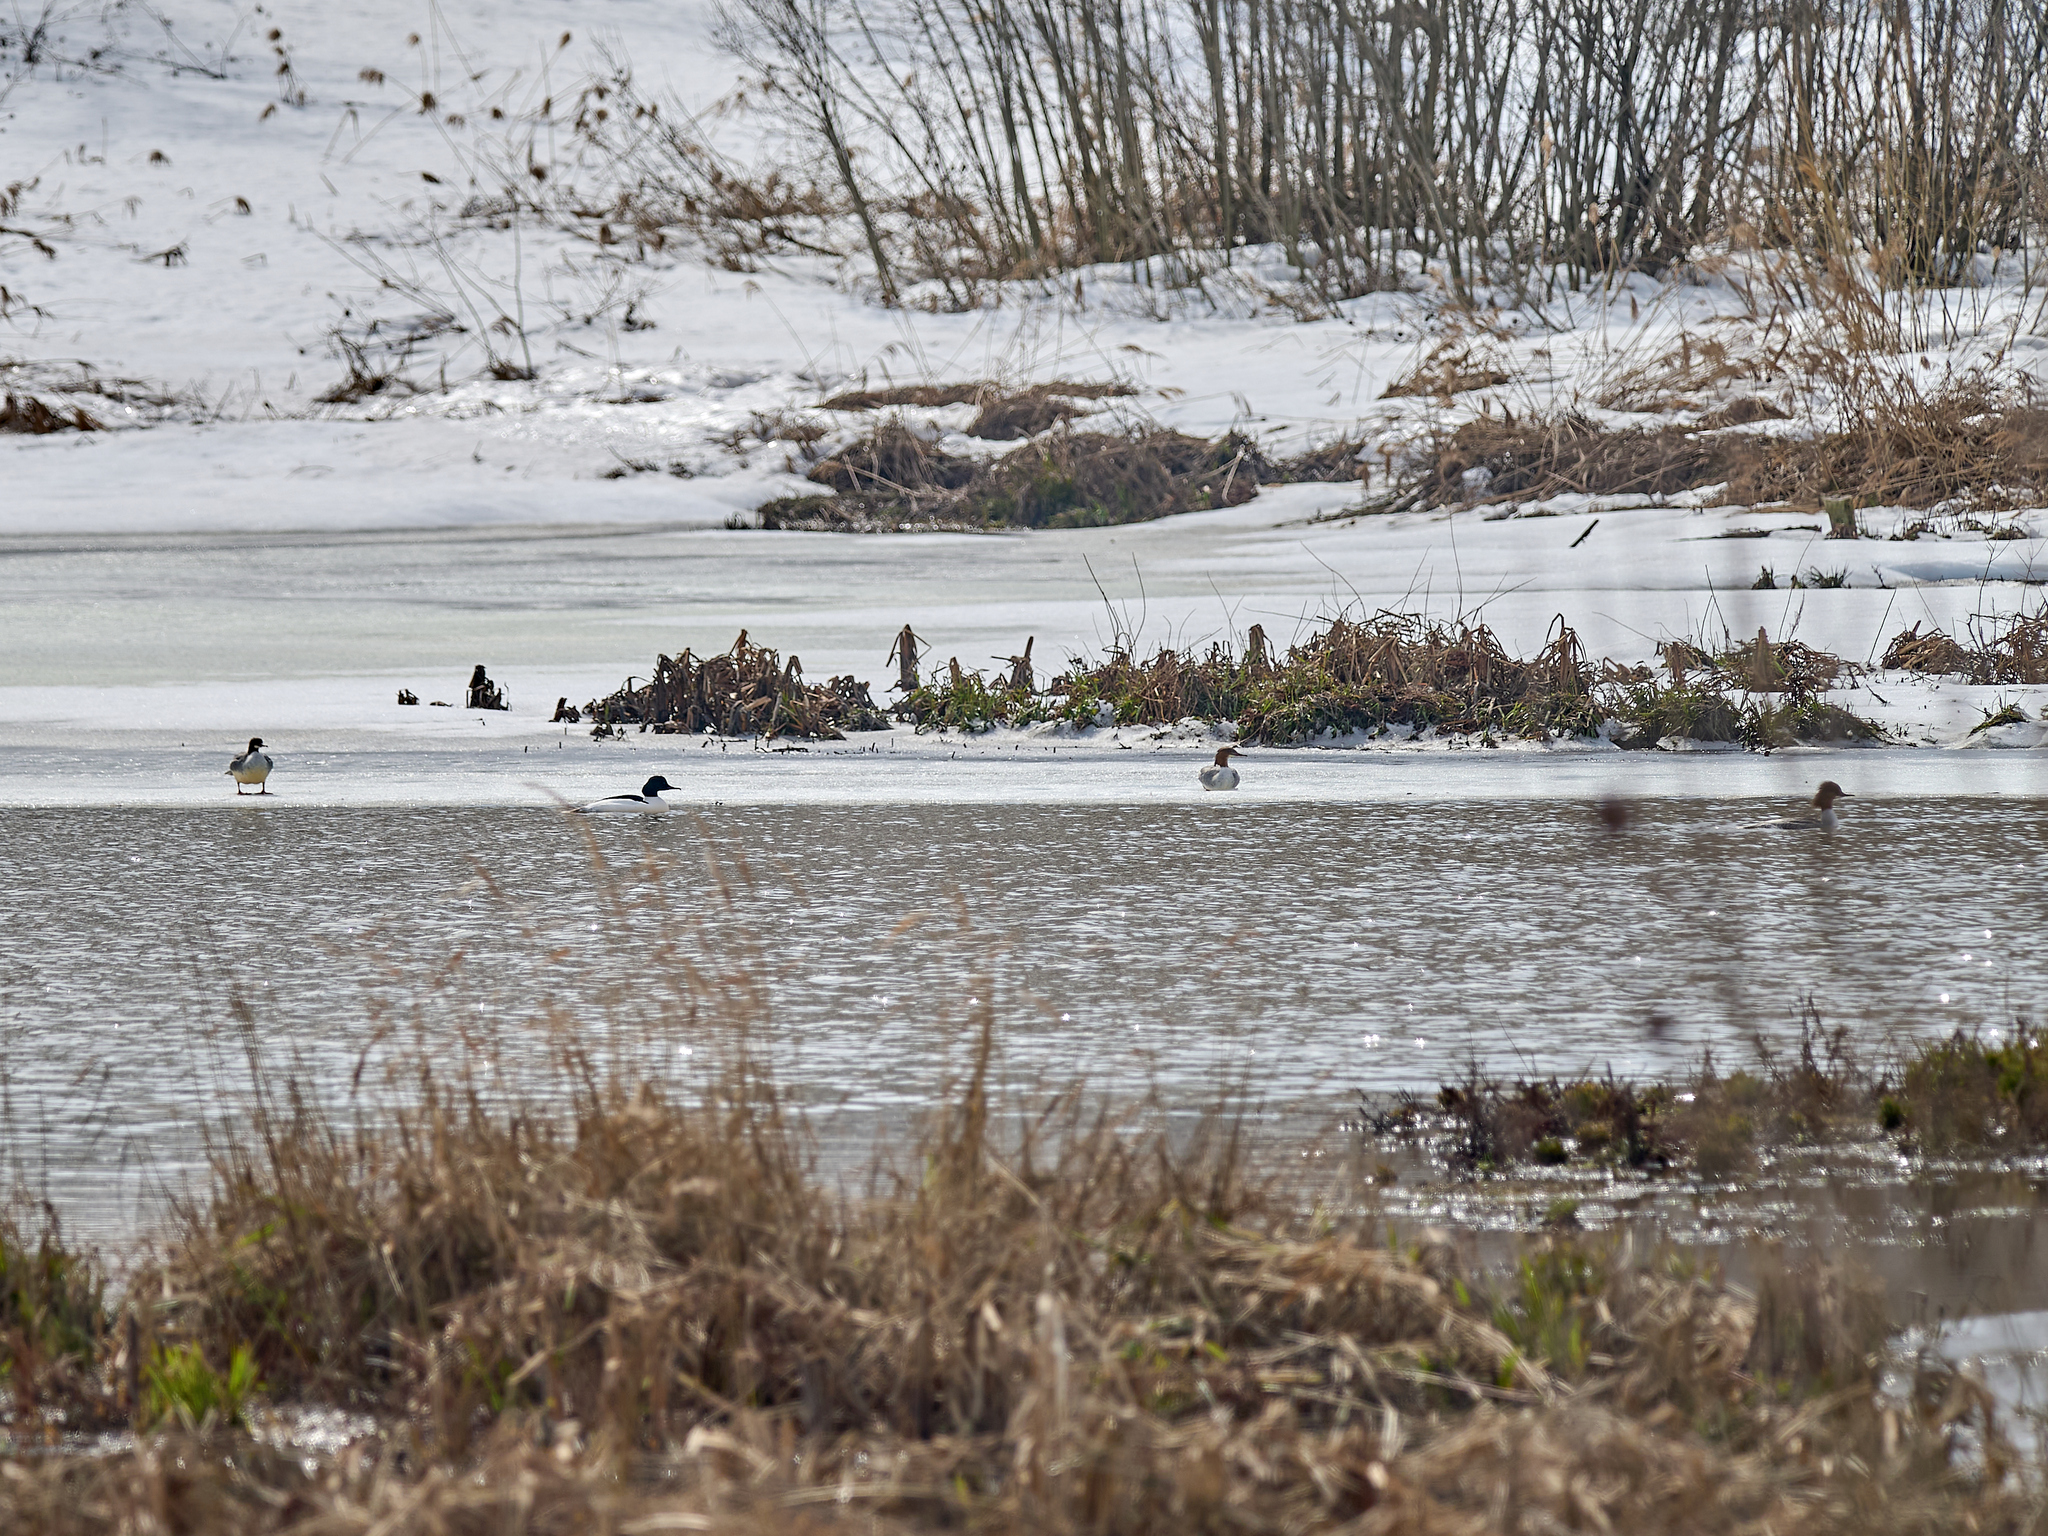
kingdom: Animalia
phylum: Chordata
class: Aves
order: Anseriformes
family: Anatidae
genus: Mergus
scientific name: Mergus merganser
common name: Common merganser
